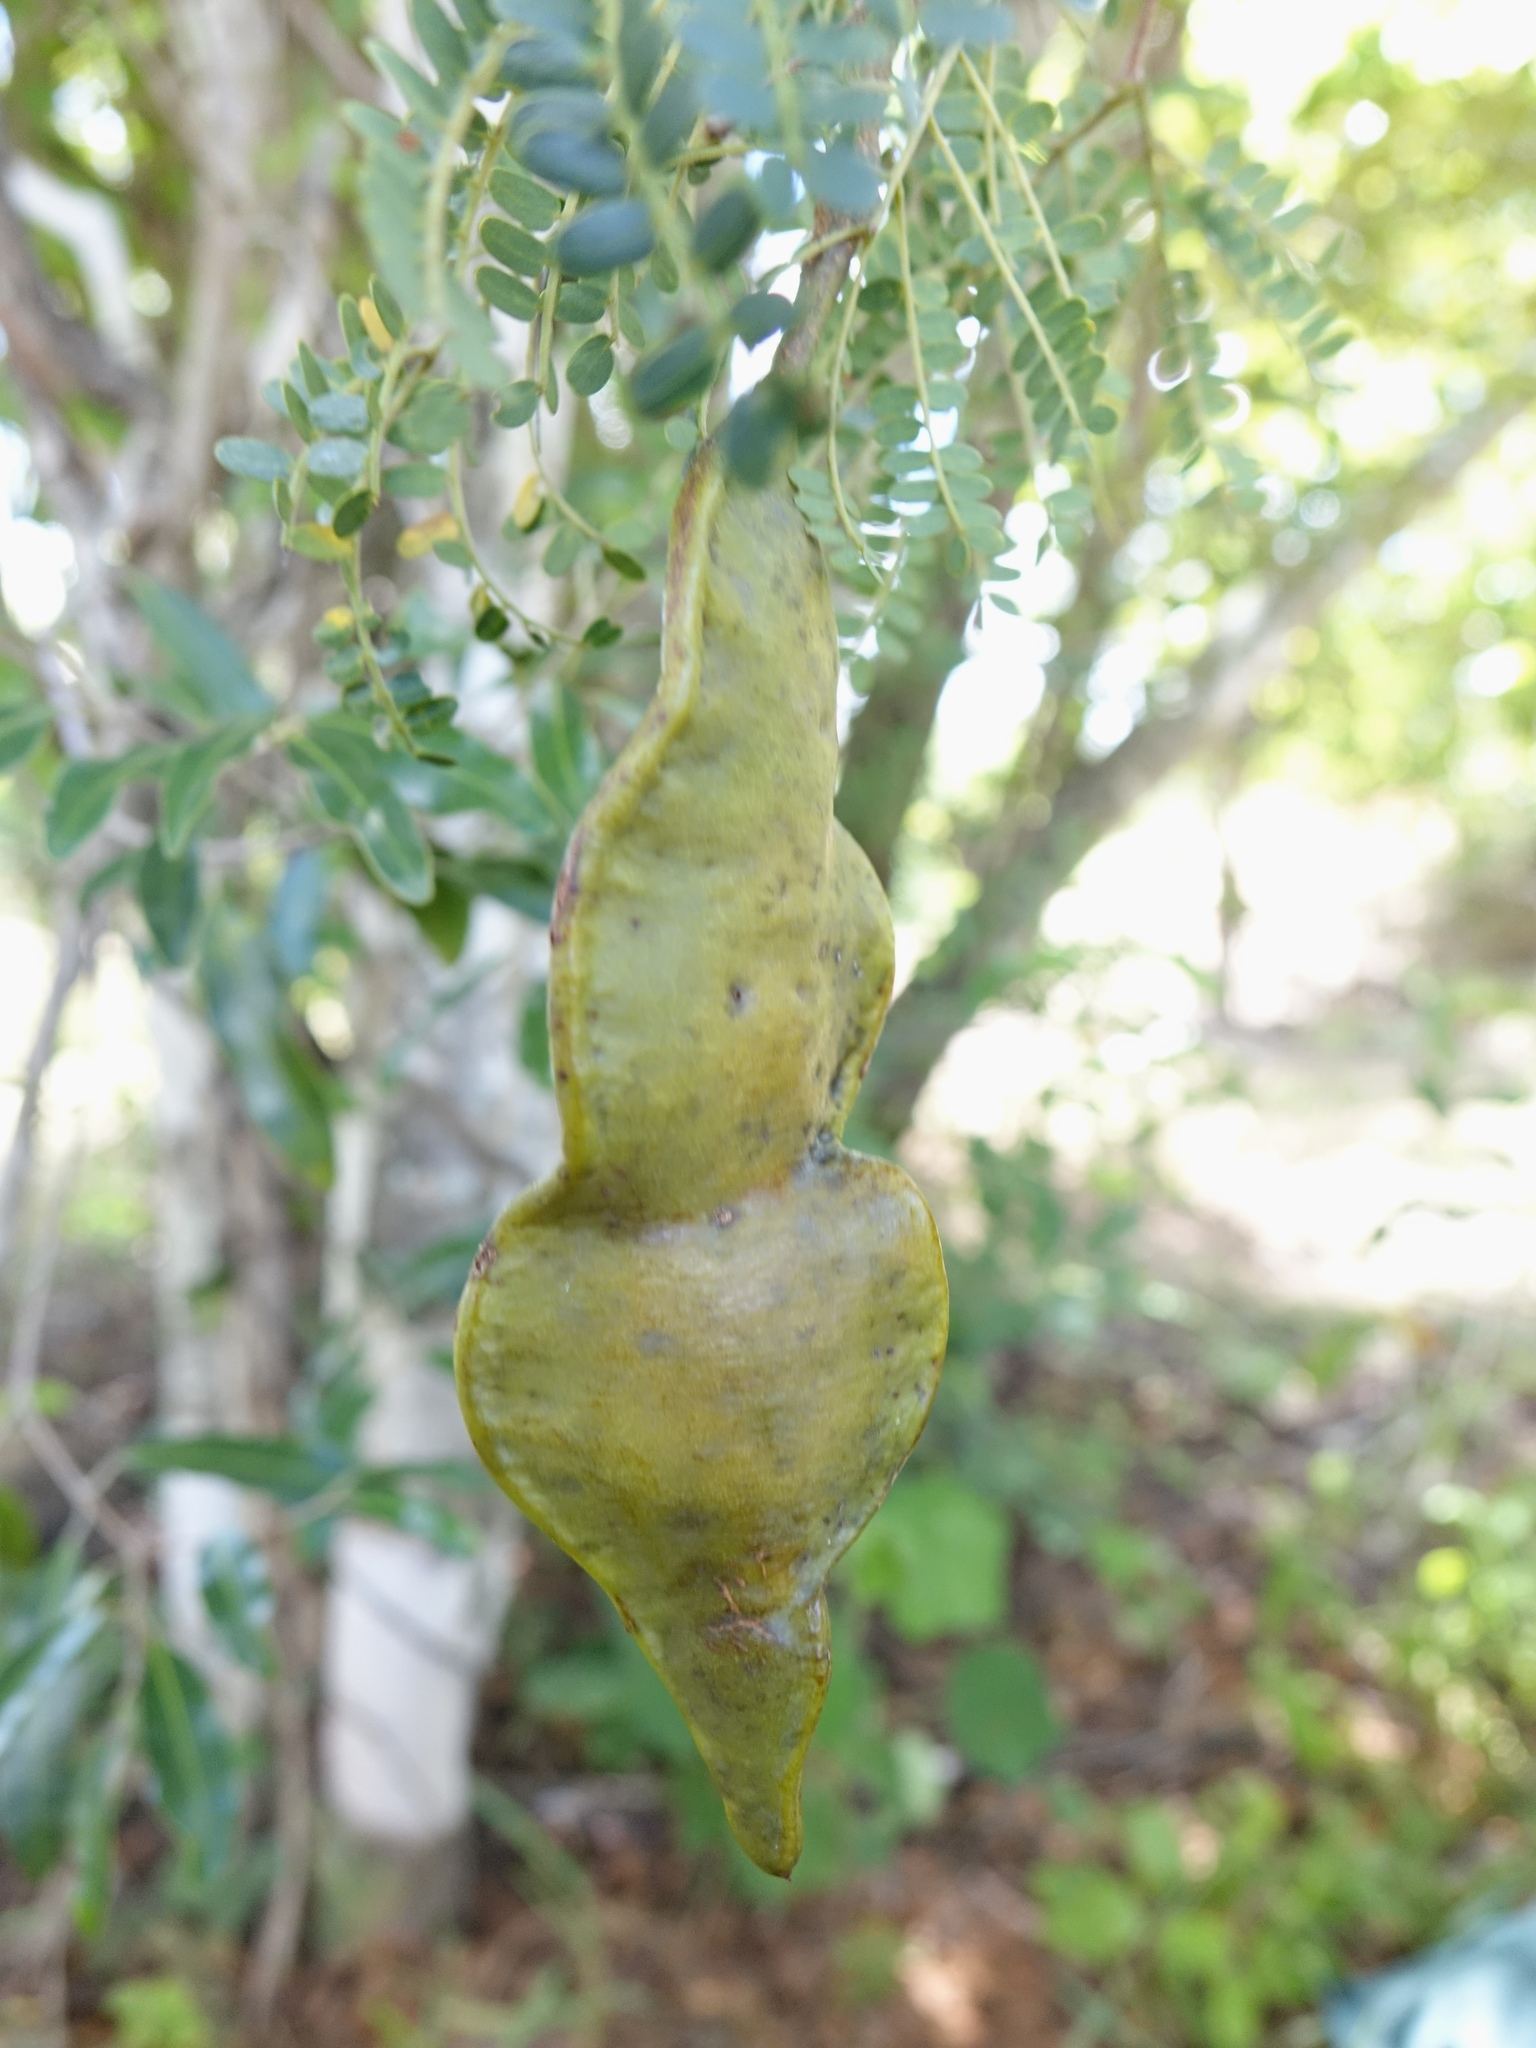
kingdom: Plantae
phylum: Tracheophyta
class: Magnoliopsida
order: Fabales
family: Fabaceae
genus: Albizia
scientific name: Albizia arenicola
